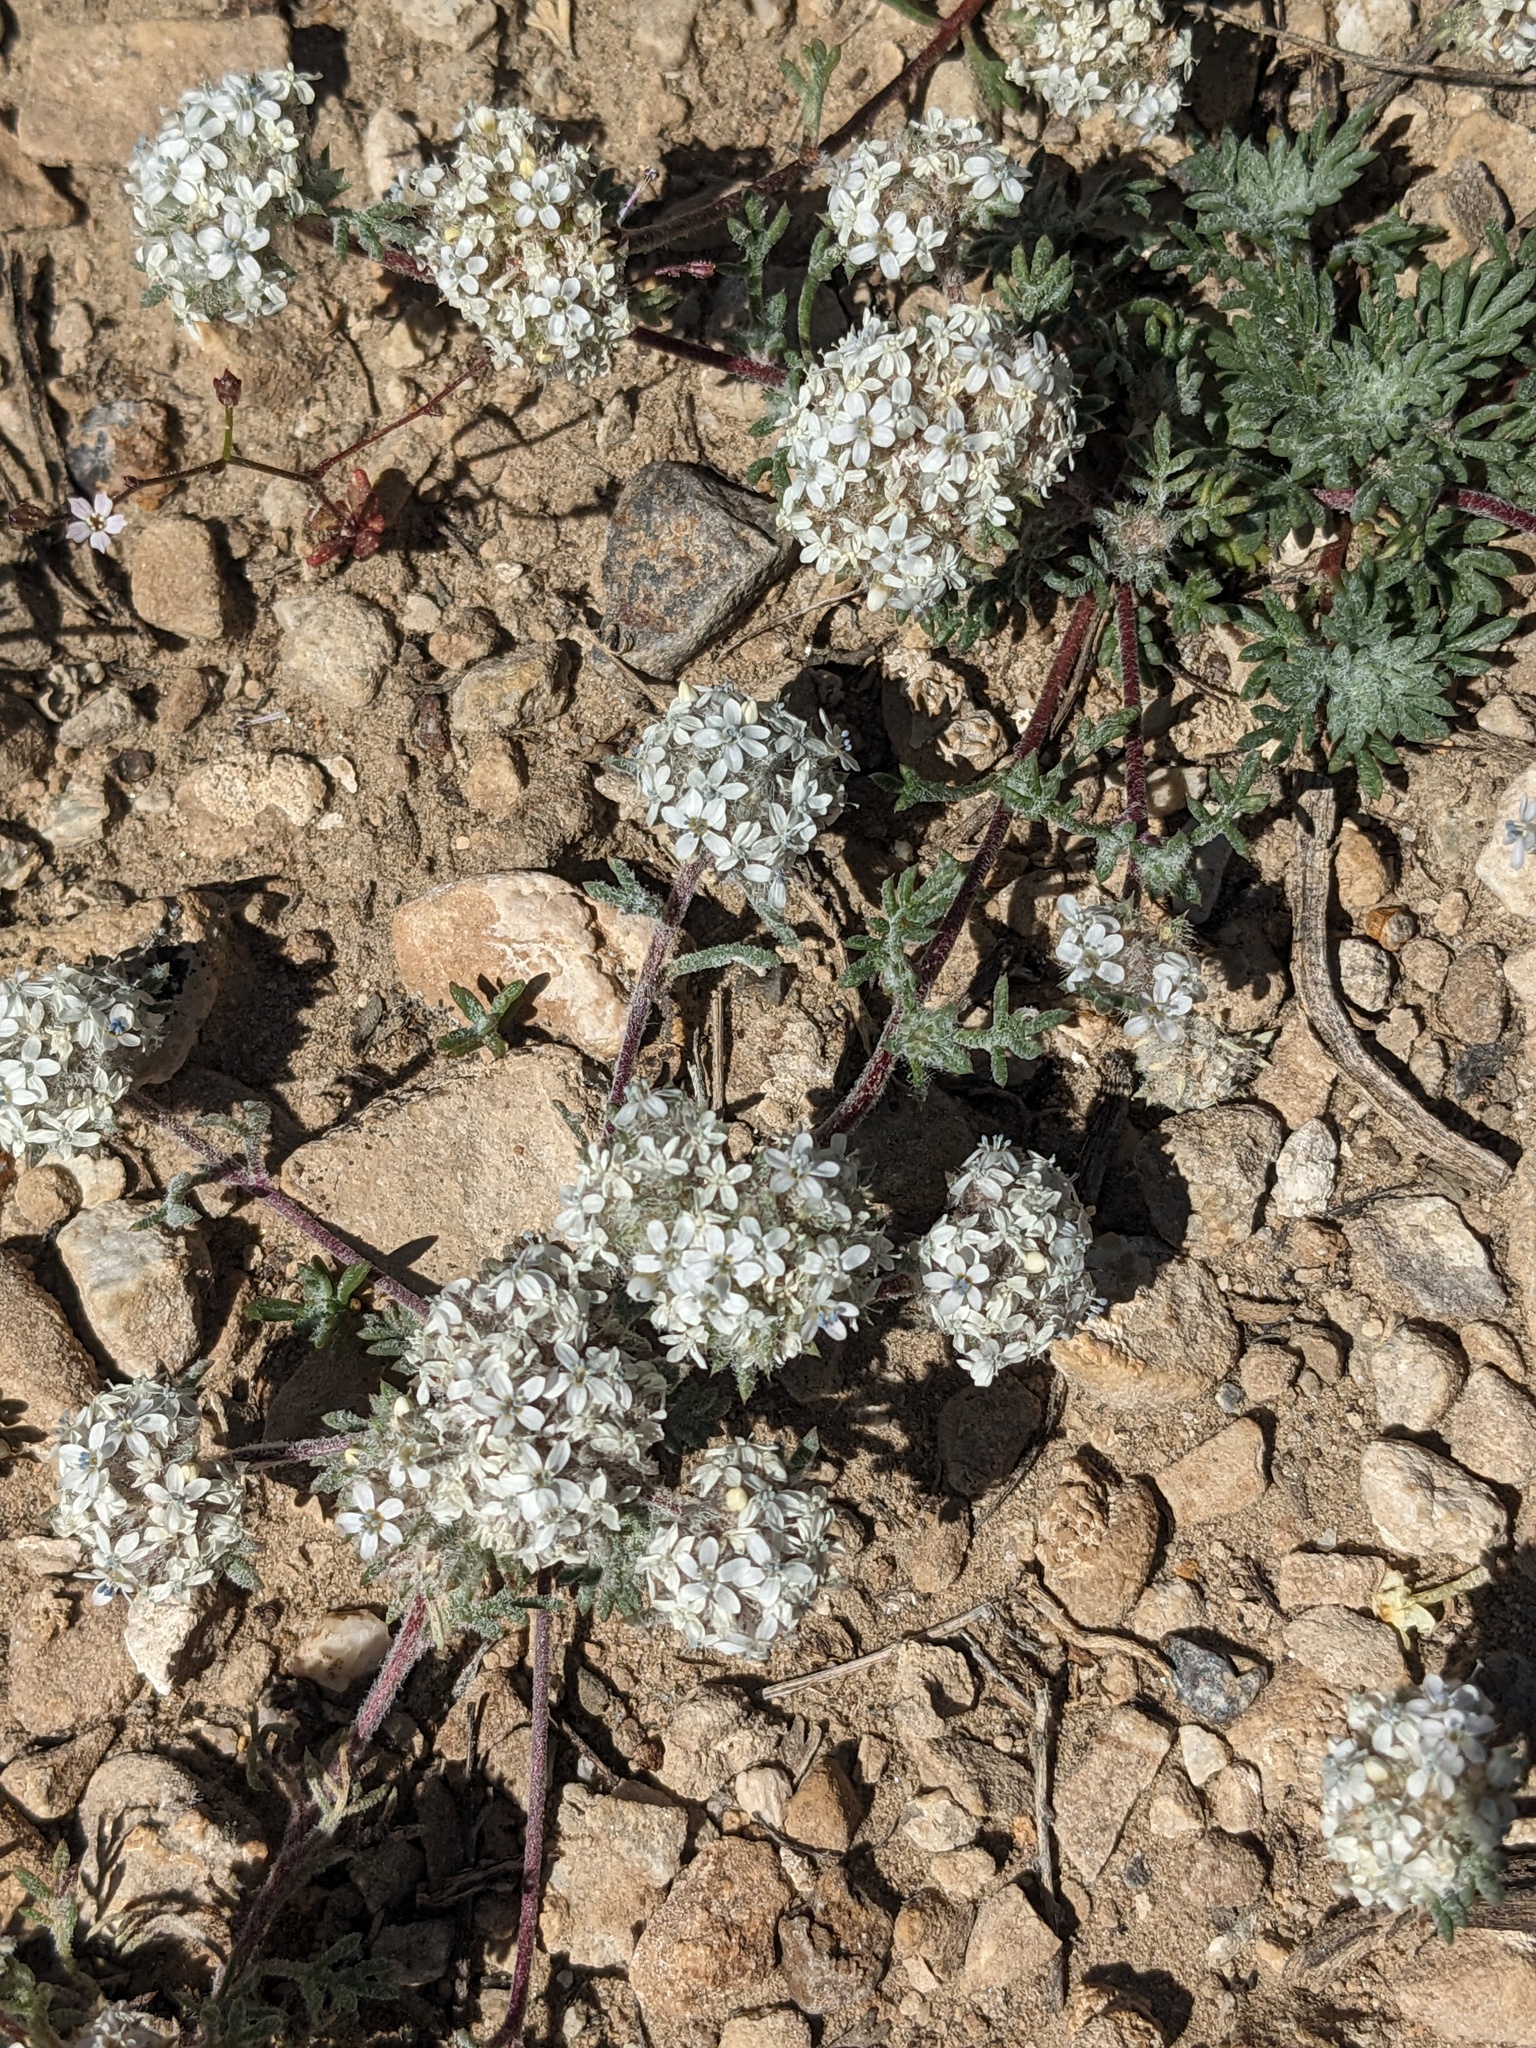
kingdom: Plantae
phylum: Tracheophyta
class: Magnoliopsida
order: Ericales
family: Polemoniaceae
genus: Ipomopsis
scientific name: Ipomopsis congesta
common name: Ball-head gilia
